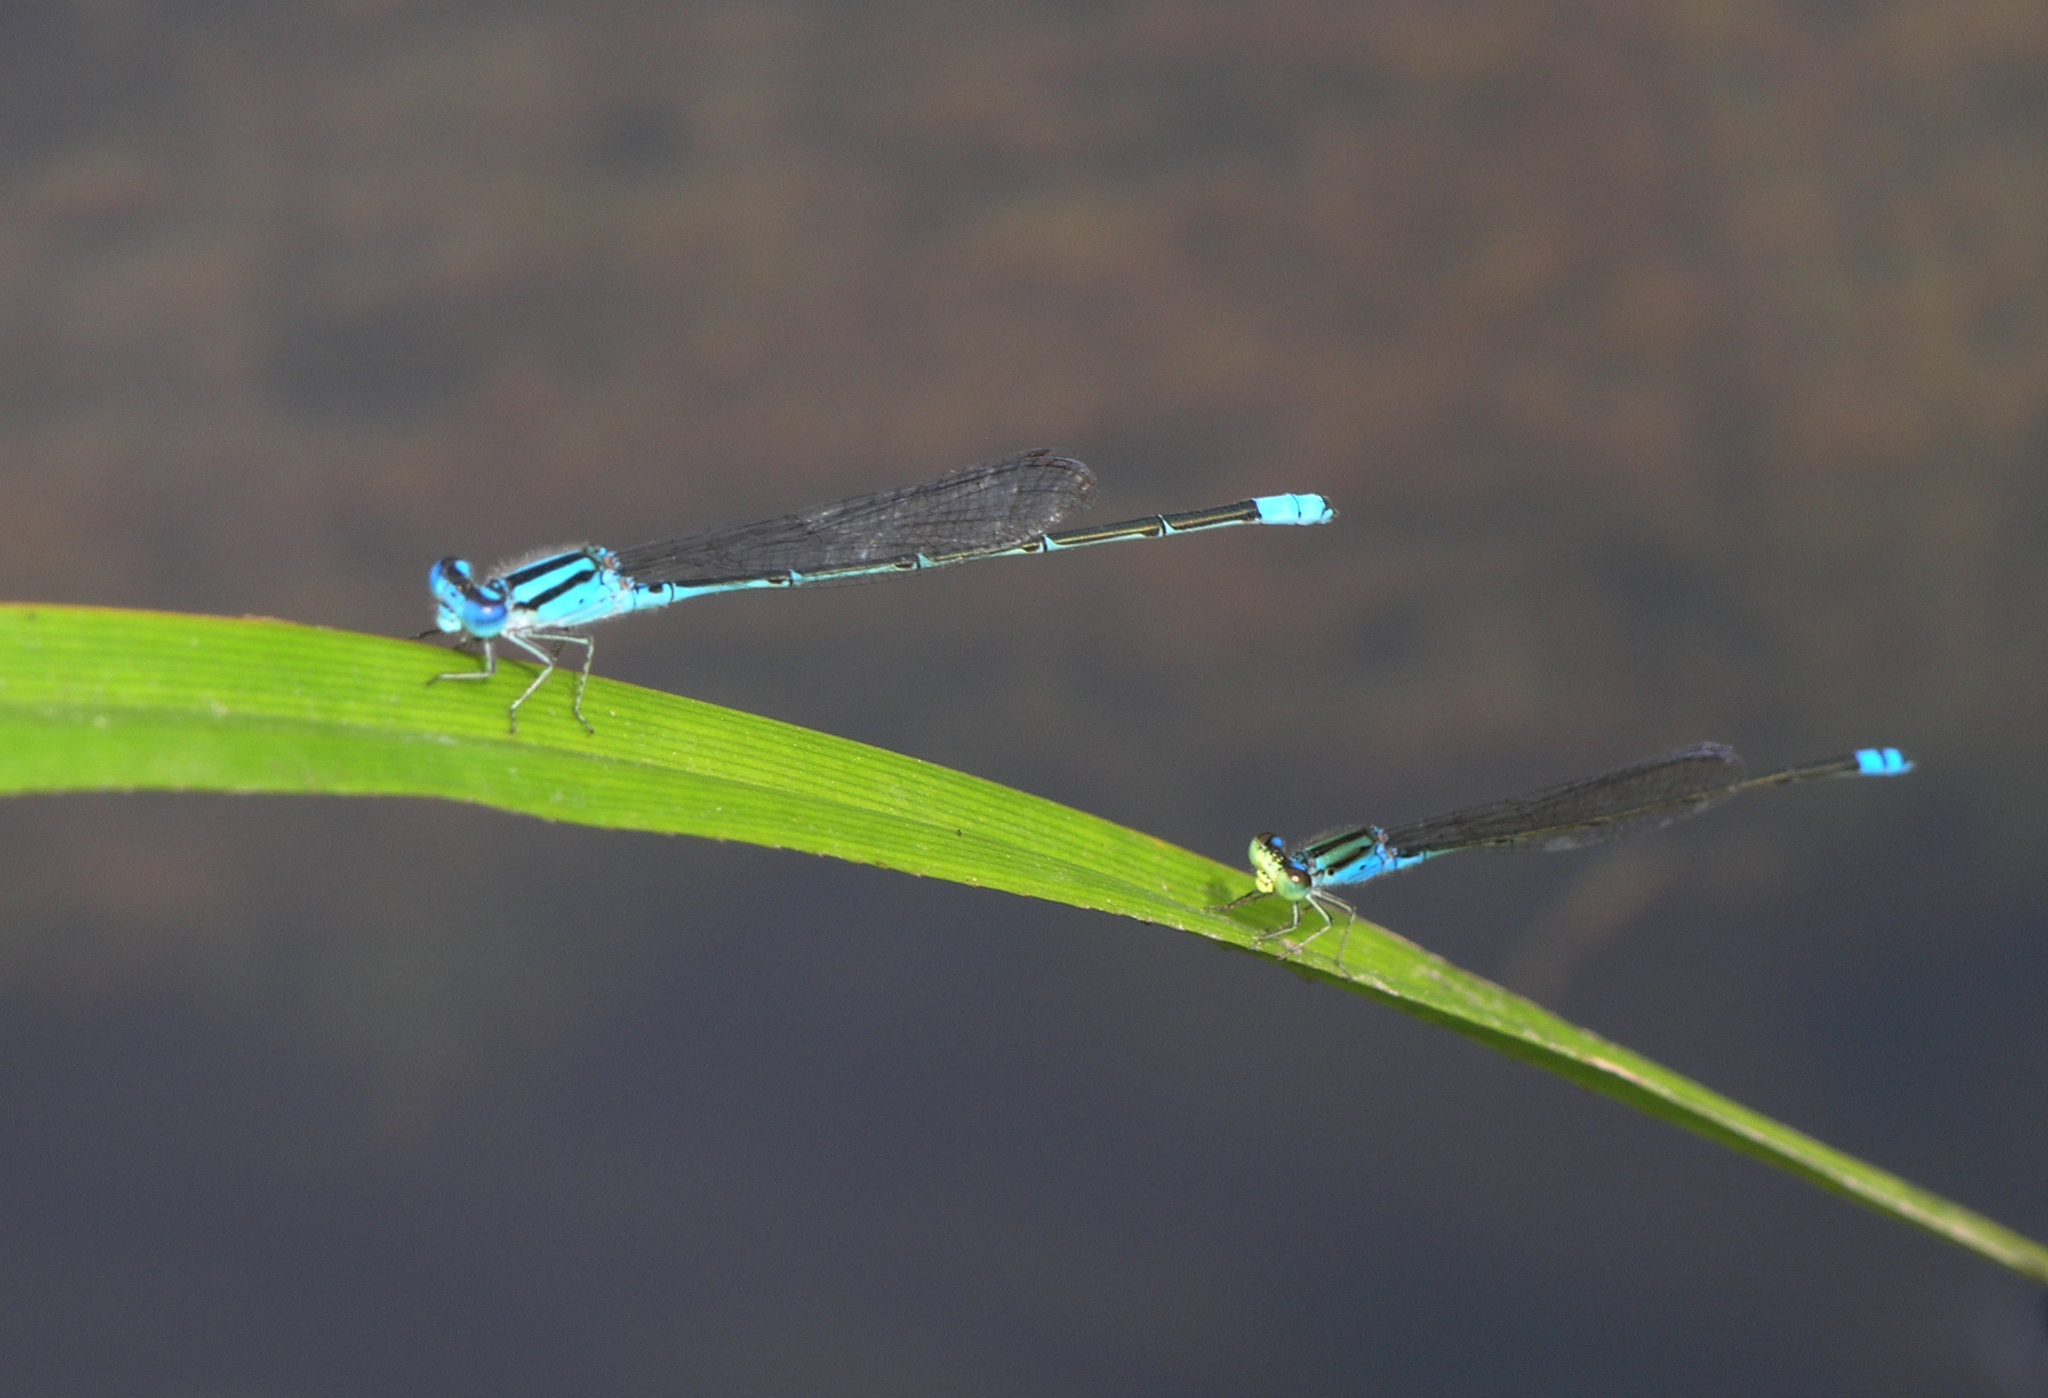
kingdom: Animalia
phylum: Arthropoda
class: Insecta
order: Odonata
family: Coenagrionidae
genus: Pseudagrion
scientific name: Pseudagrion australasiae
